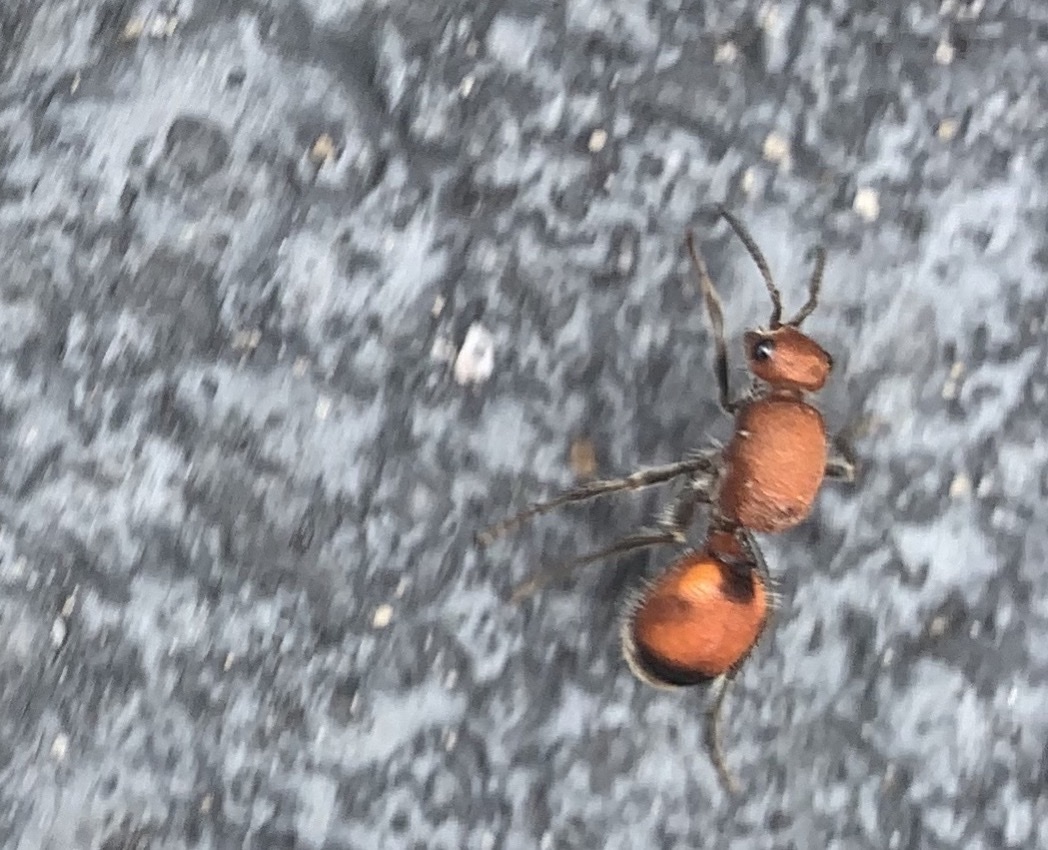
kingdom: Animalia
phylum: Arthropoda
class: Insecta
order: Hymenoptera
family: Mutillidae
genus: Dasymutilla
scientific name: Dasymutilla
